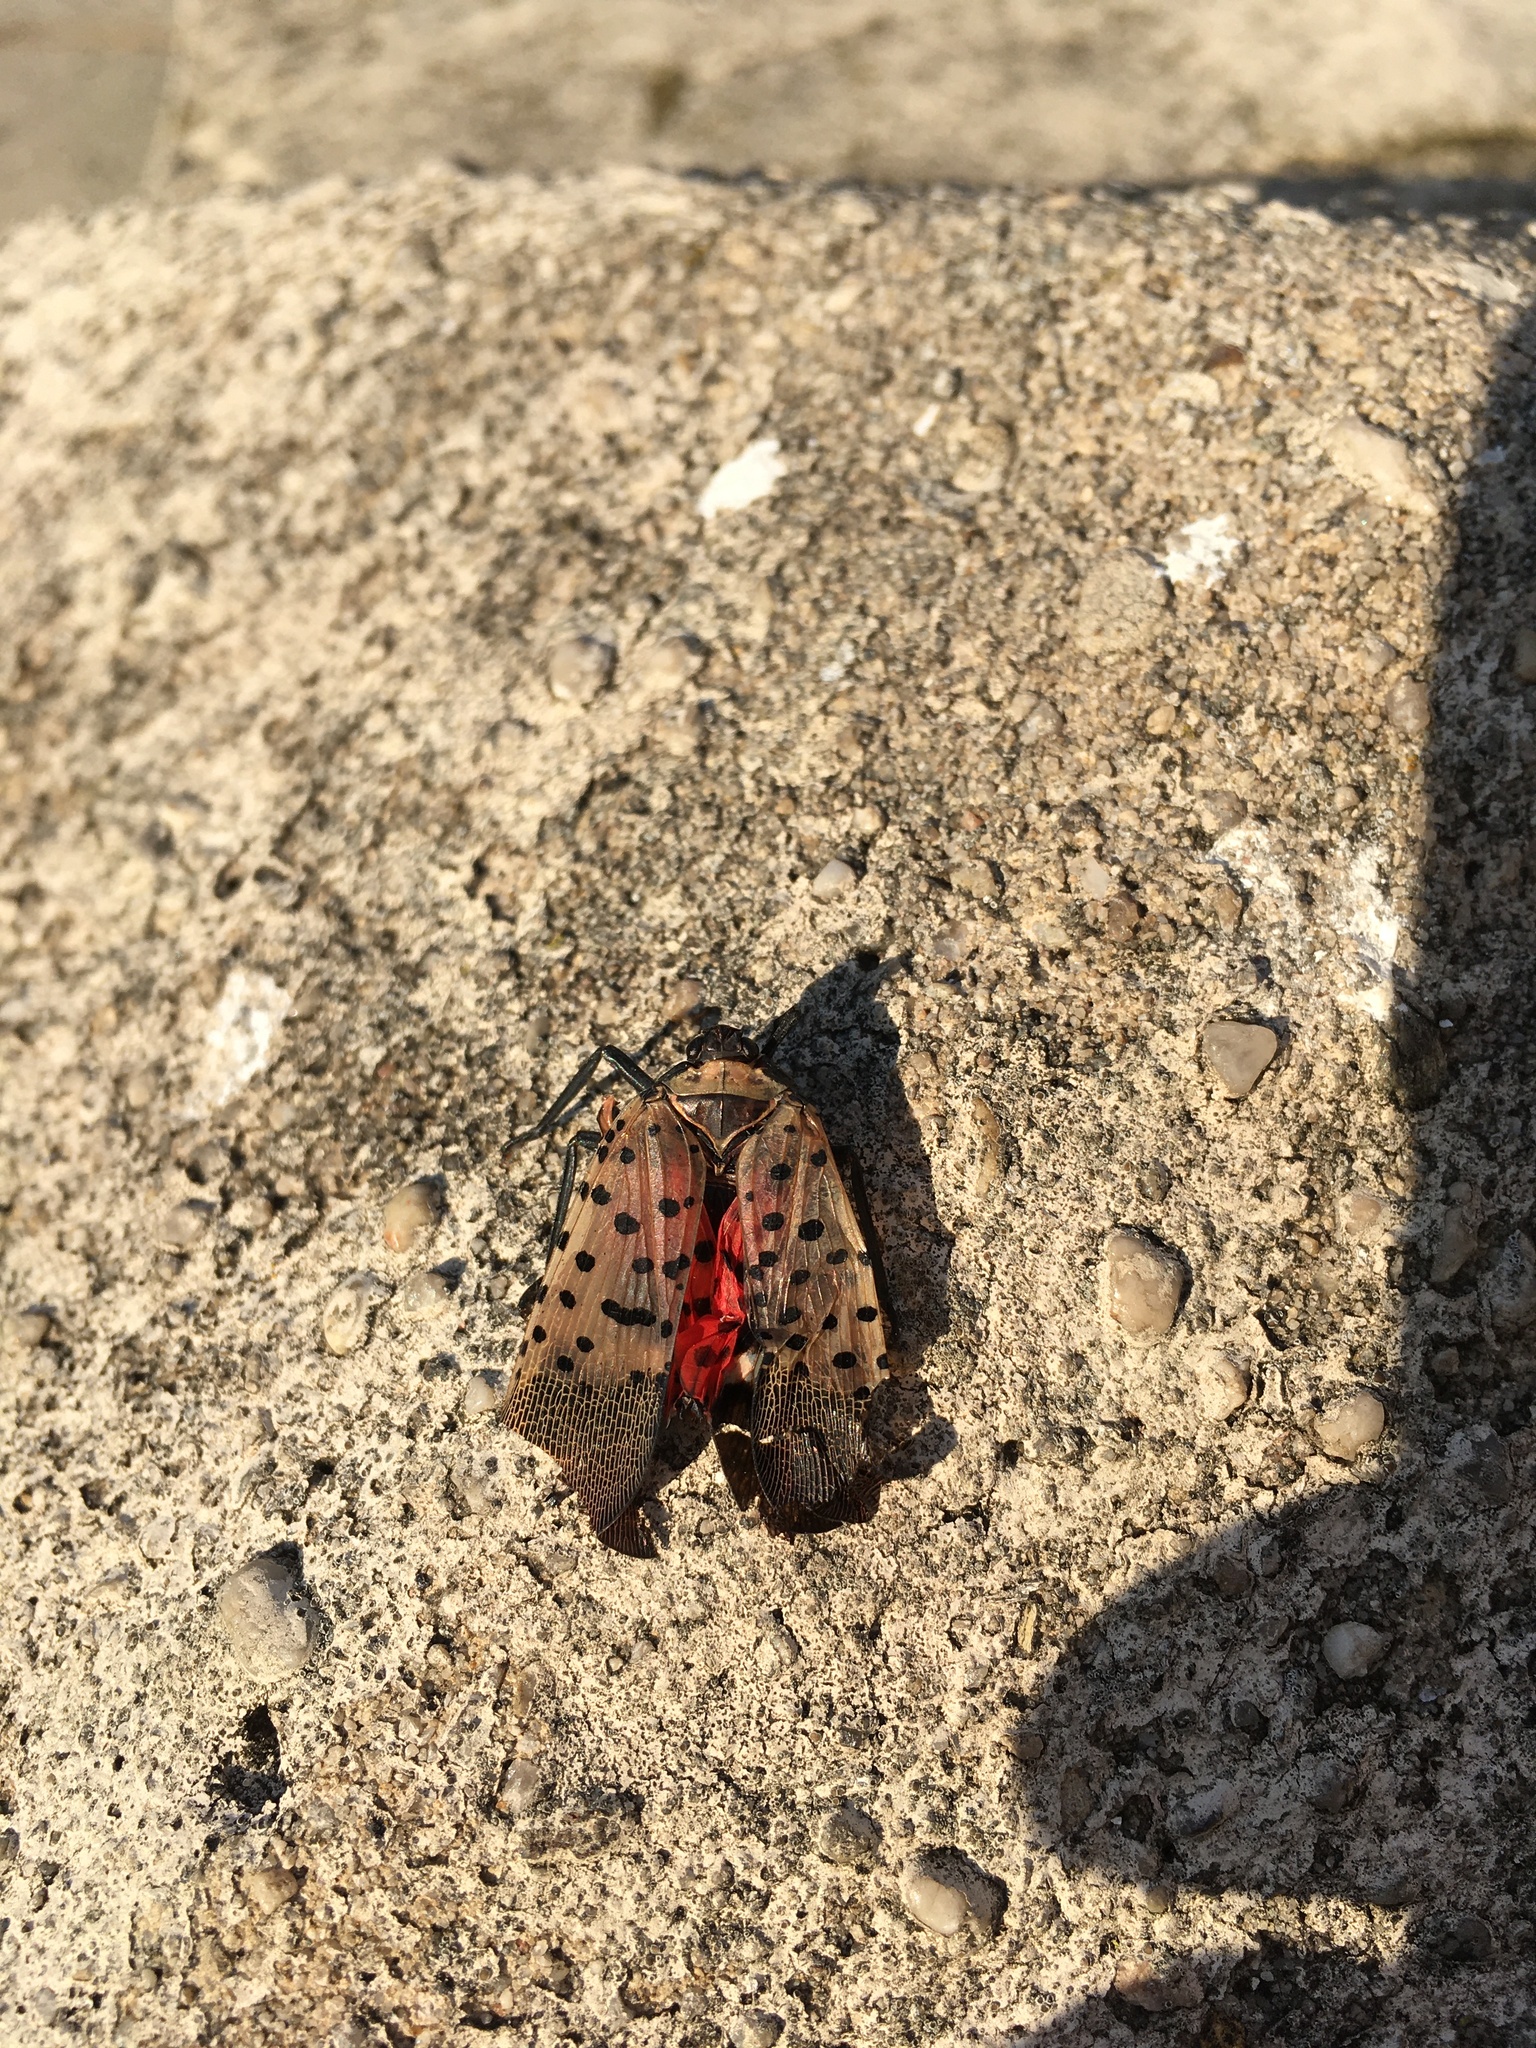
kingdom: Animalia
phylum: Arthropoda
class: Insecta
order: Hemiptera
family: Fulgoridae
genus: Lycorma
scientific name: Lycorma delicatula
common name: Spotted lanternfly
